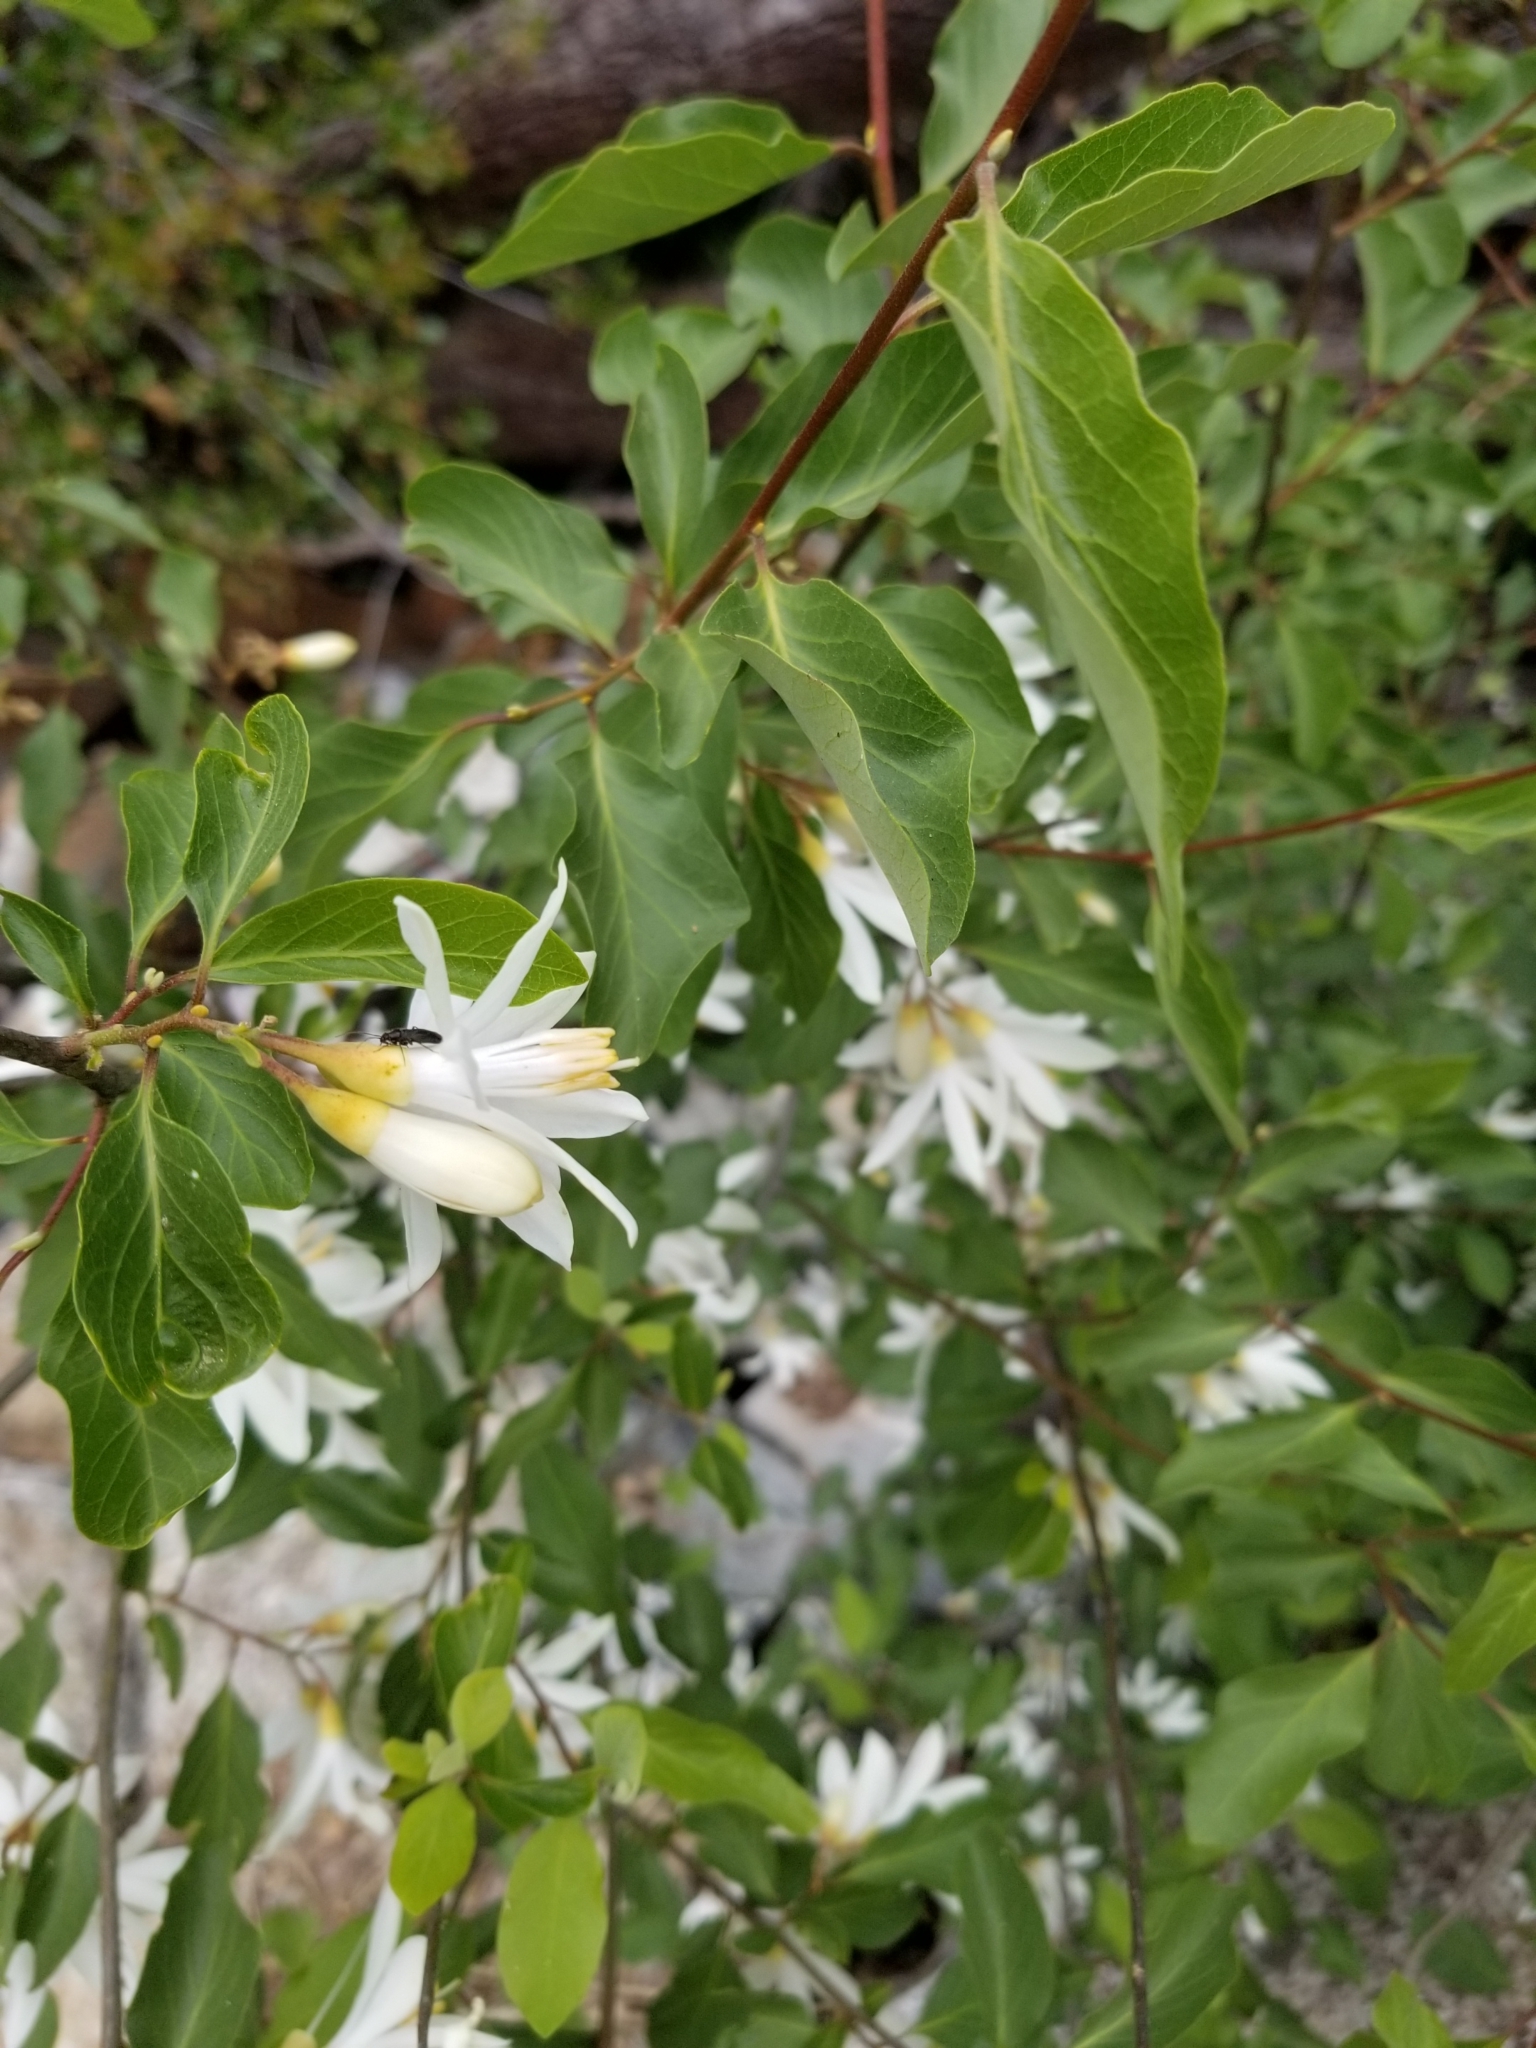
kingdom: Plantae
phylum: Tracheophyta
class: Magnoliopsida
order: Ericales
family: Styracaceae
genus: Styrax
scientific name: Styrax redivivus
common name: California styrax
